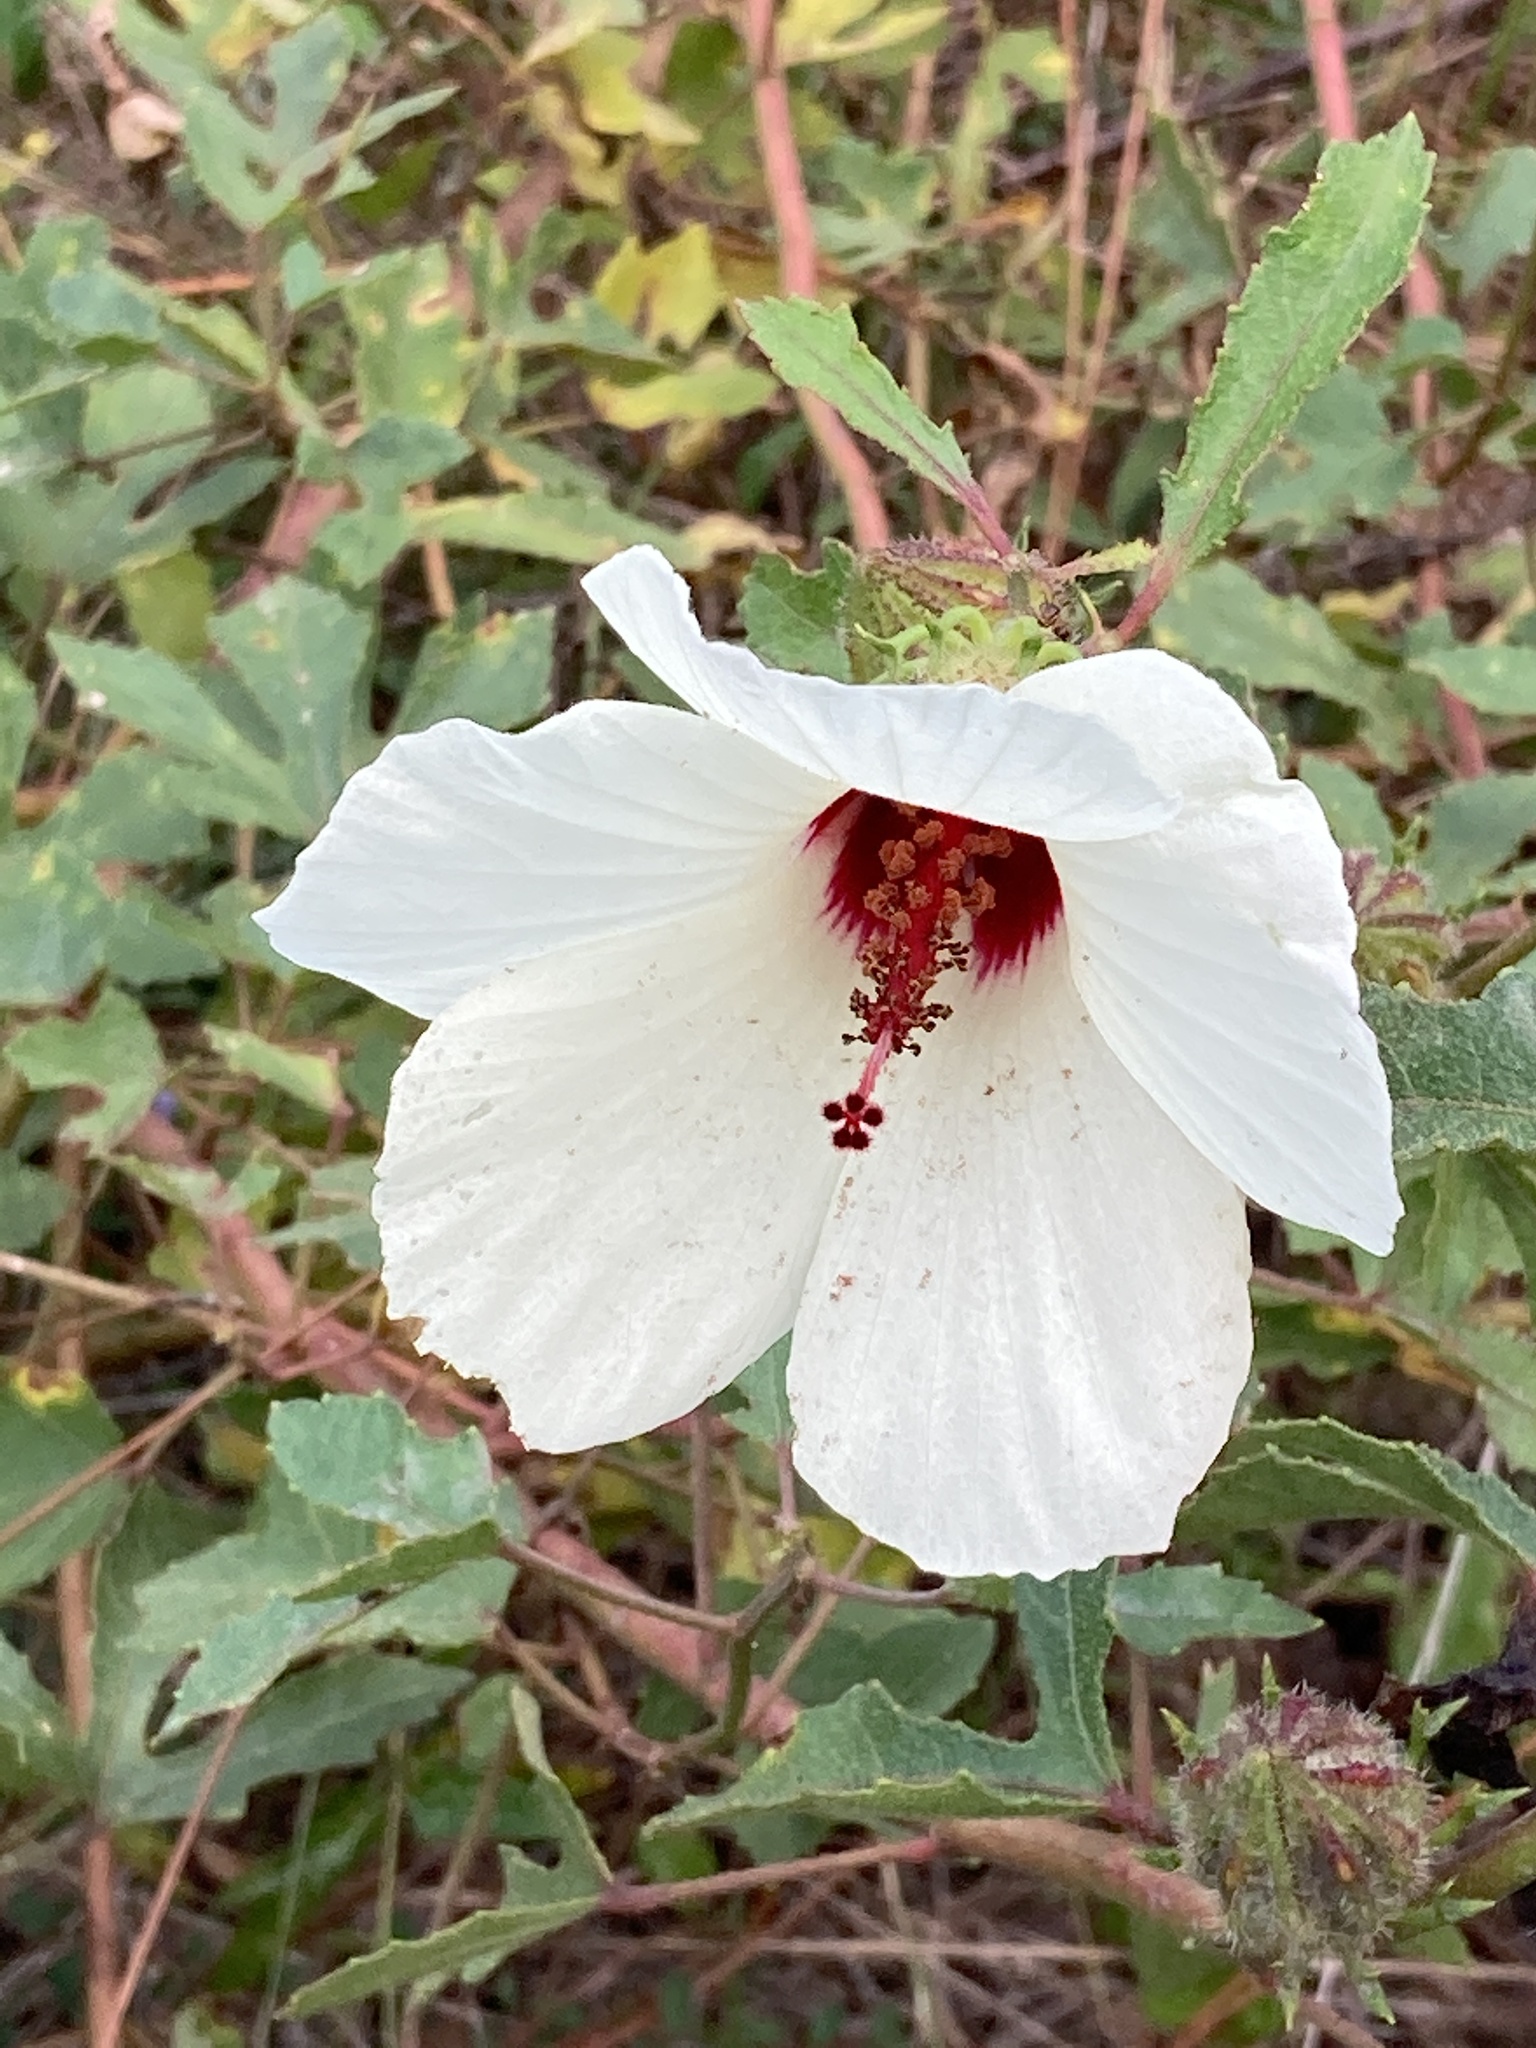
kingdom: Plantae
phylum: Tracheophyta
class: Magnoliopsida
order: Malvales
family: Malvaceae
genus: Hibiscus
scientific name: Hibiscus aculeatus
